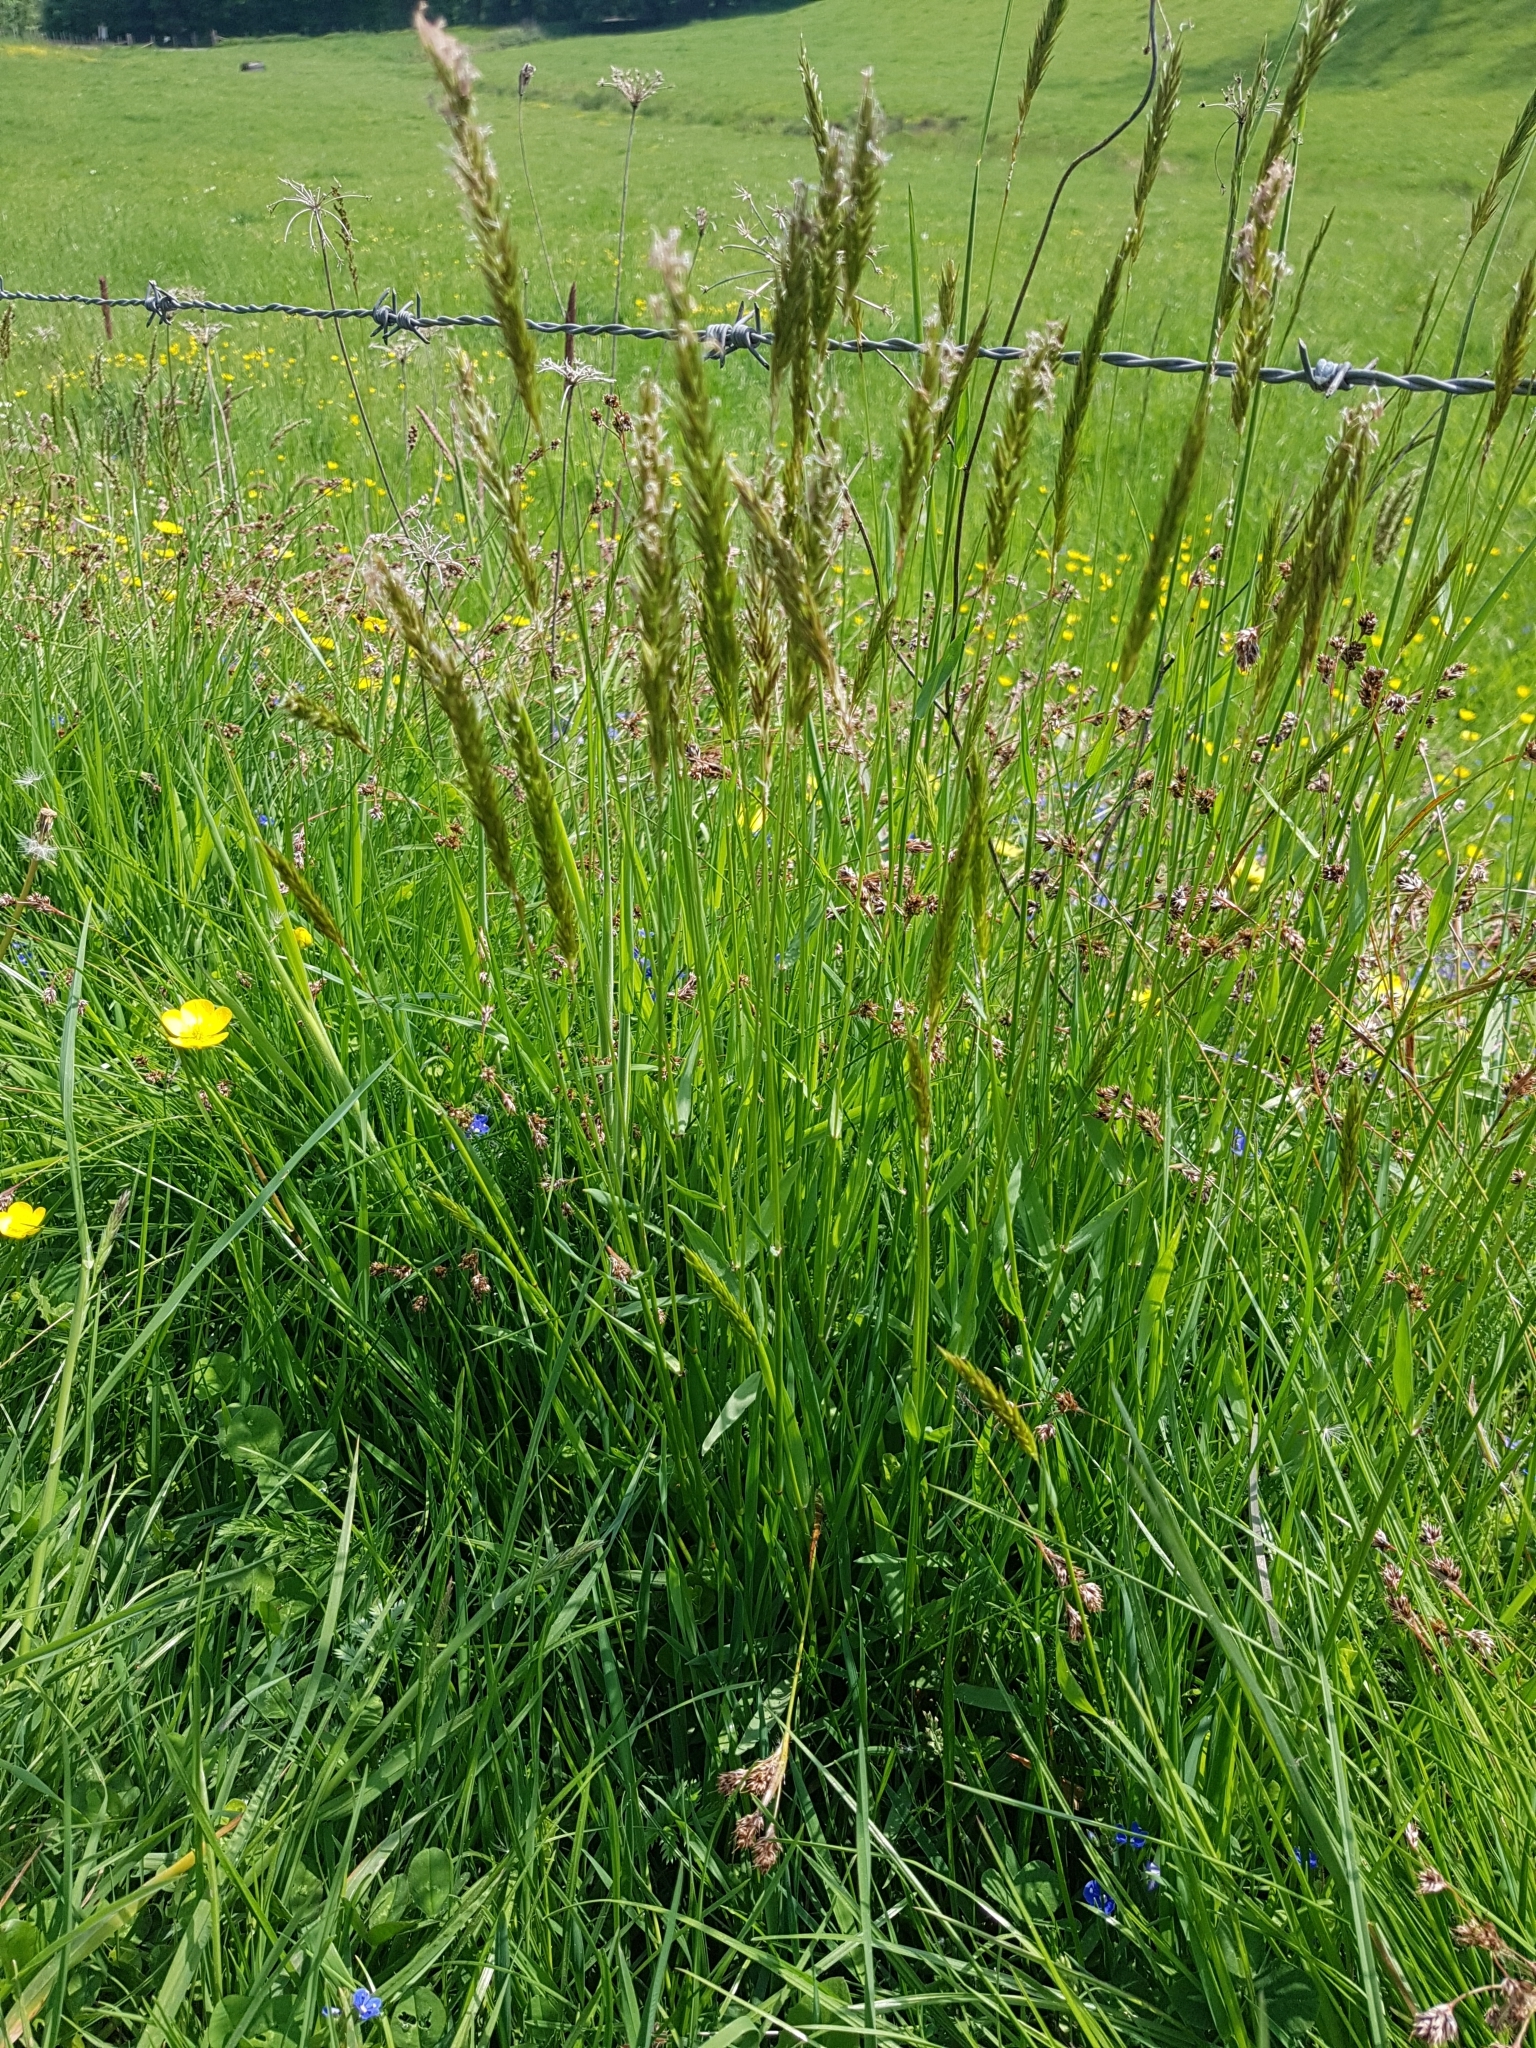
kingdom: Plantae
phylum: Tracheophyta
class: Liliopsida
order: Poales
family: Poaceae
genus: Anthoxanthum
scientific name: Anthoxanthum odoratum
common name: Sweet vernalgrass
